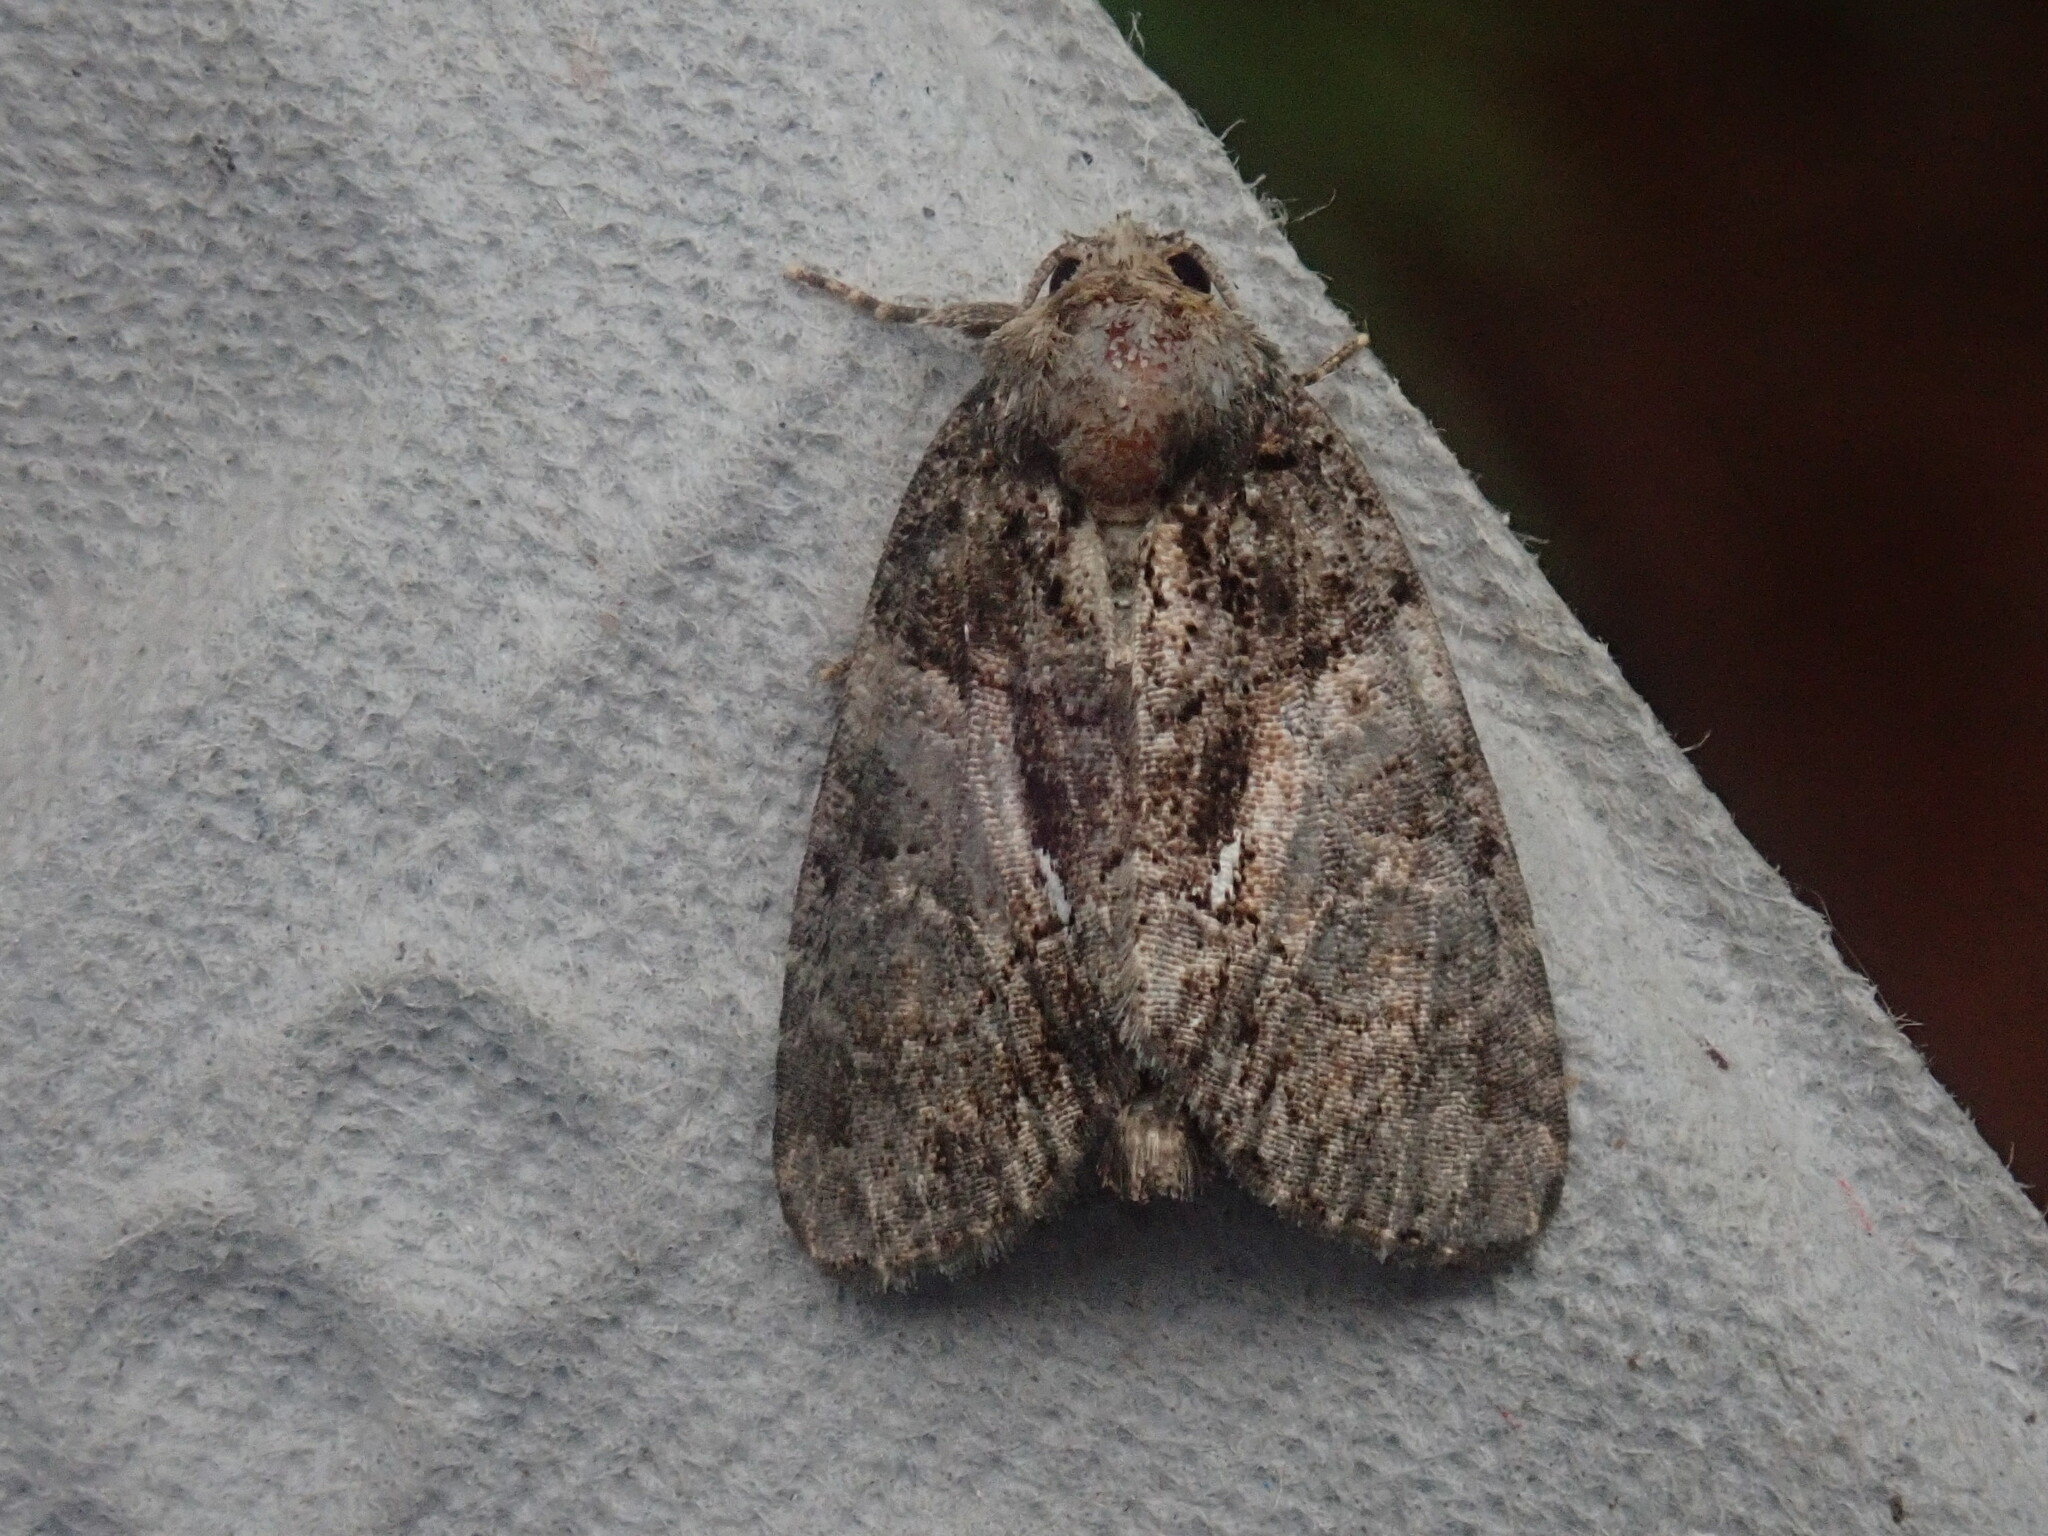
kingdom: Animalia
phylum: Arthropoda
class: Insecta
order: Lepidoptera
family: Noctuidae
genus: Chytonix
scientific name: Chytonix palliatricula
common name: Cloaked marvel
